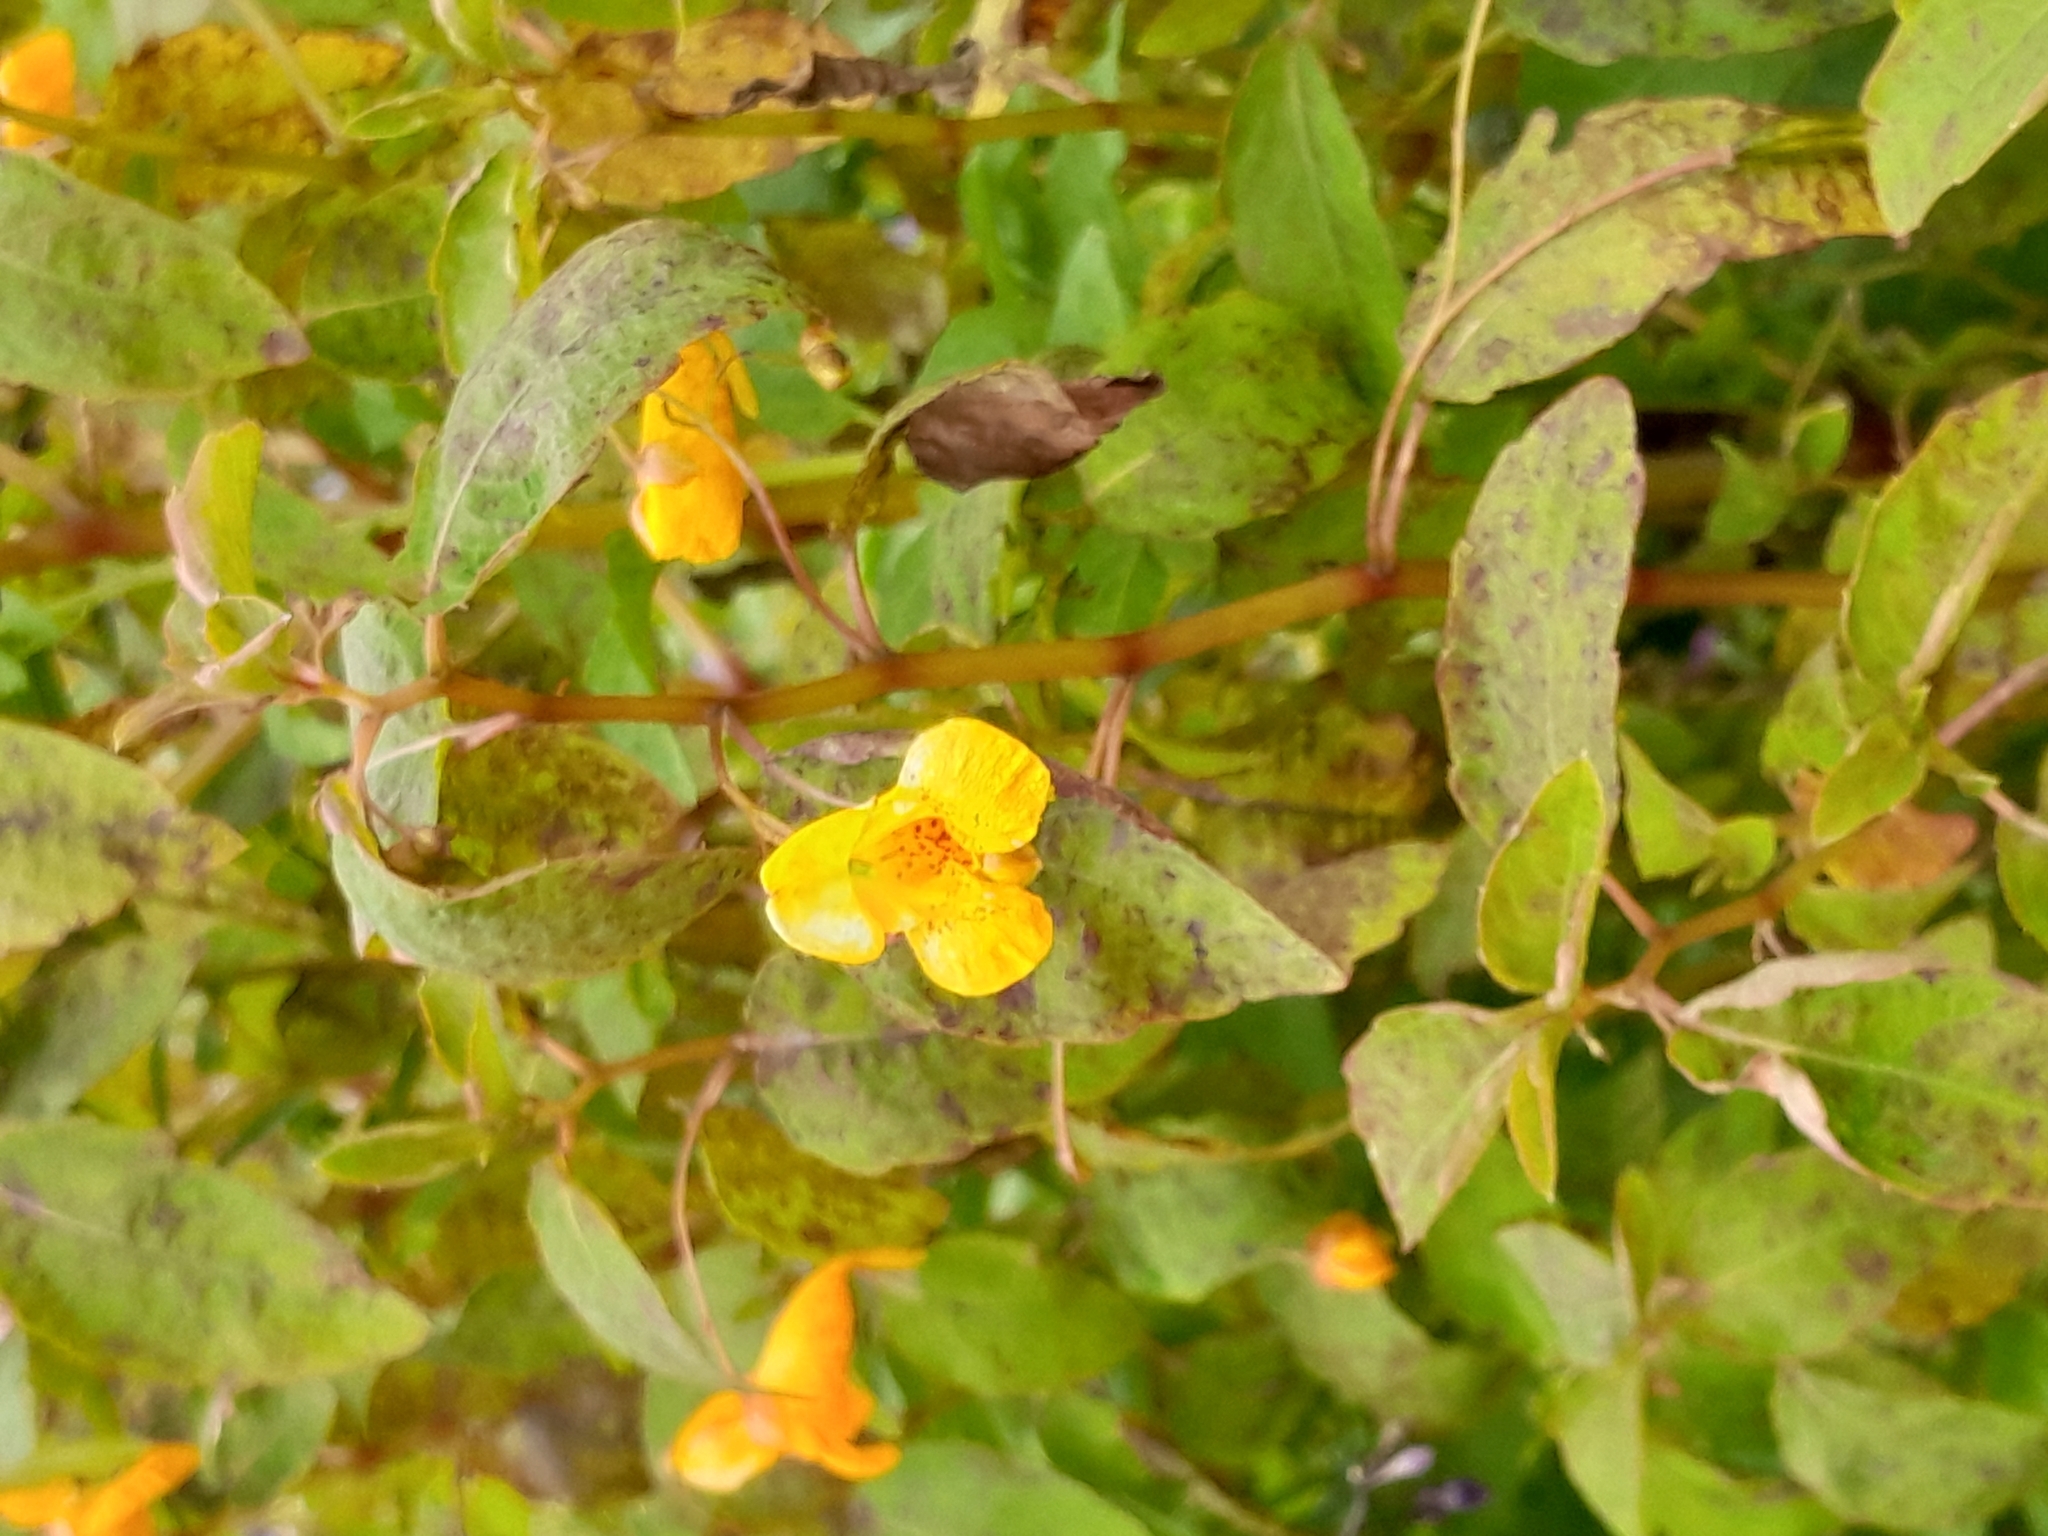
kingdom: Plantae
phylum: Tracheophyta
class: Magnoliopsida
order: Ericales
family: Balsaminaceae
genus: Impatiens
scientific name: Impatiens capensis
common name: Orange balsam
